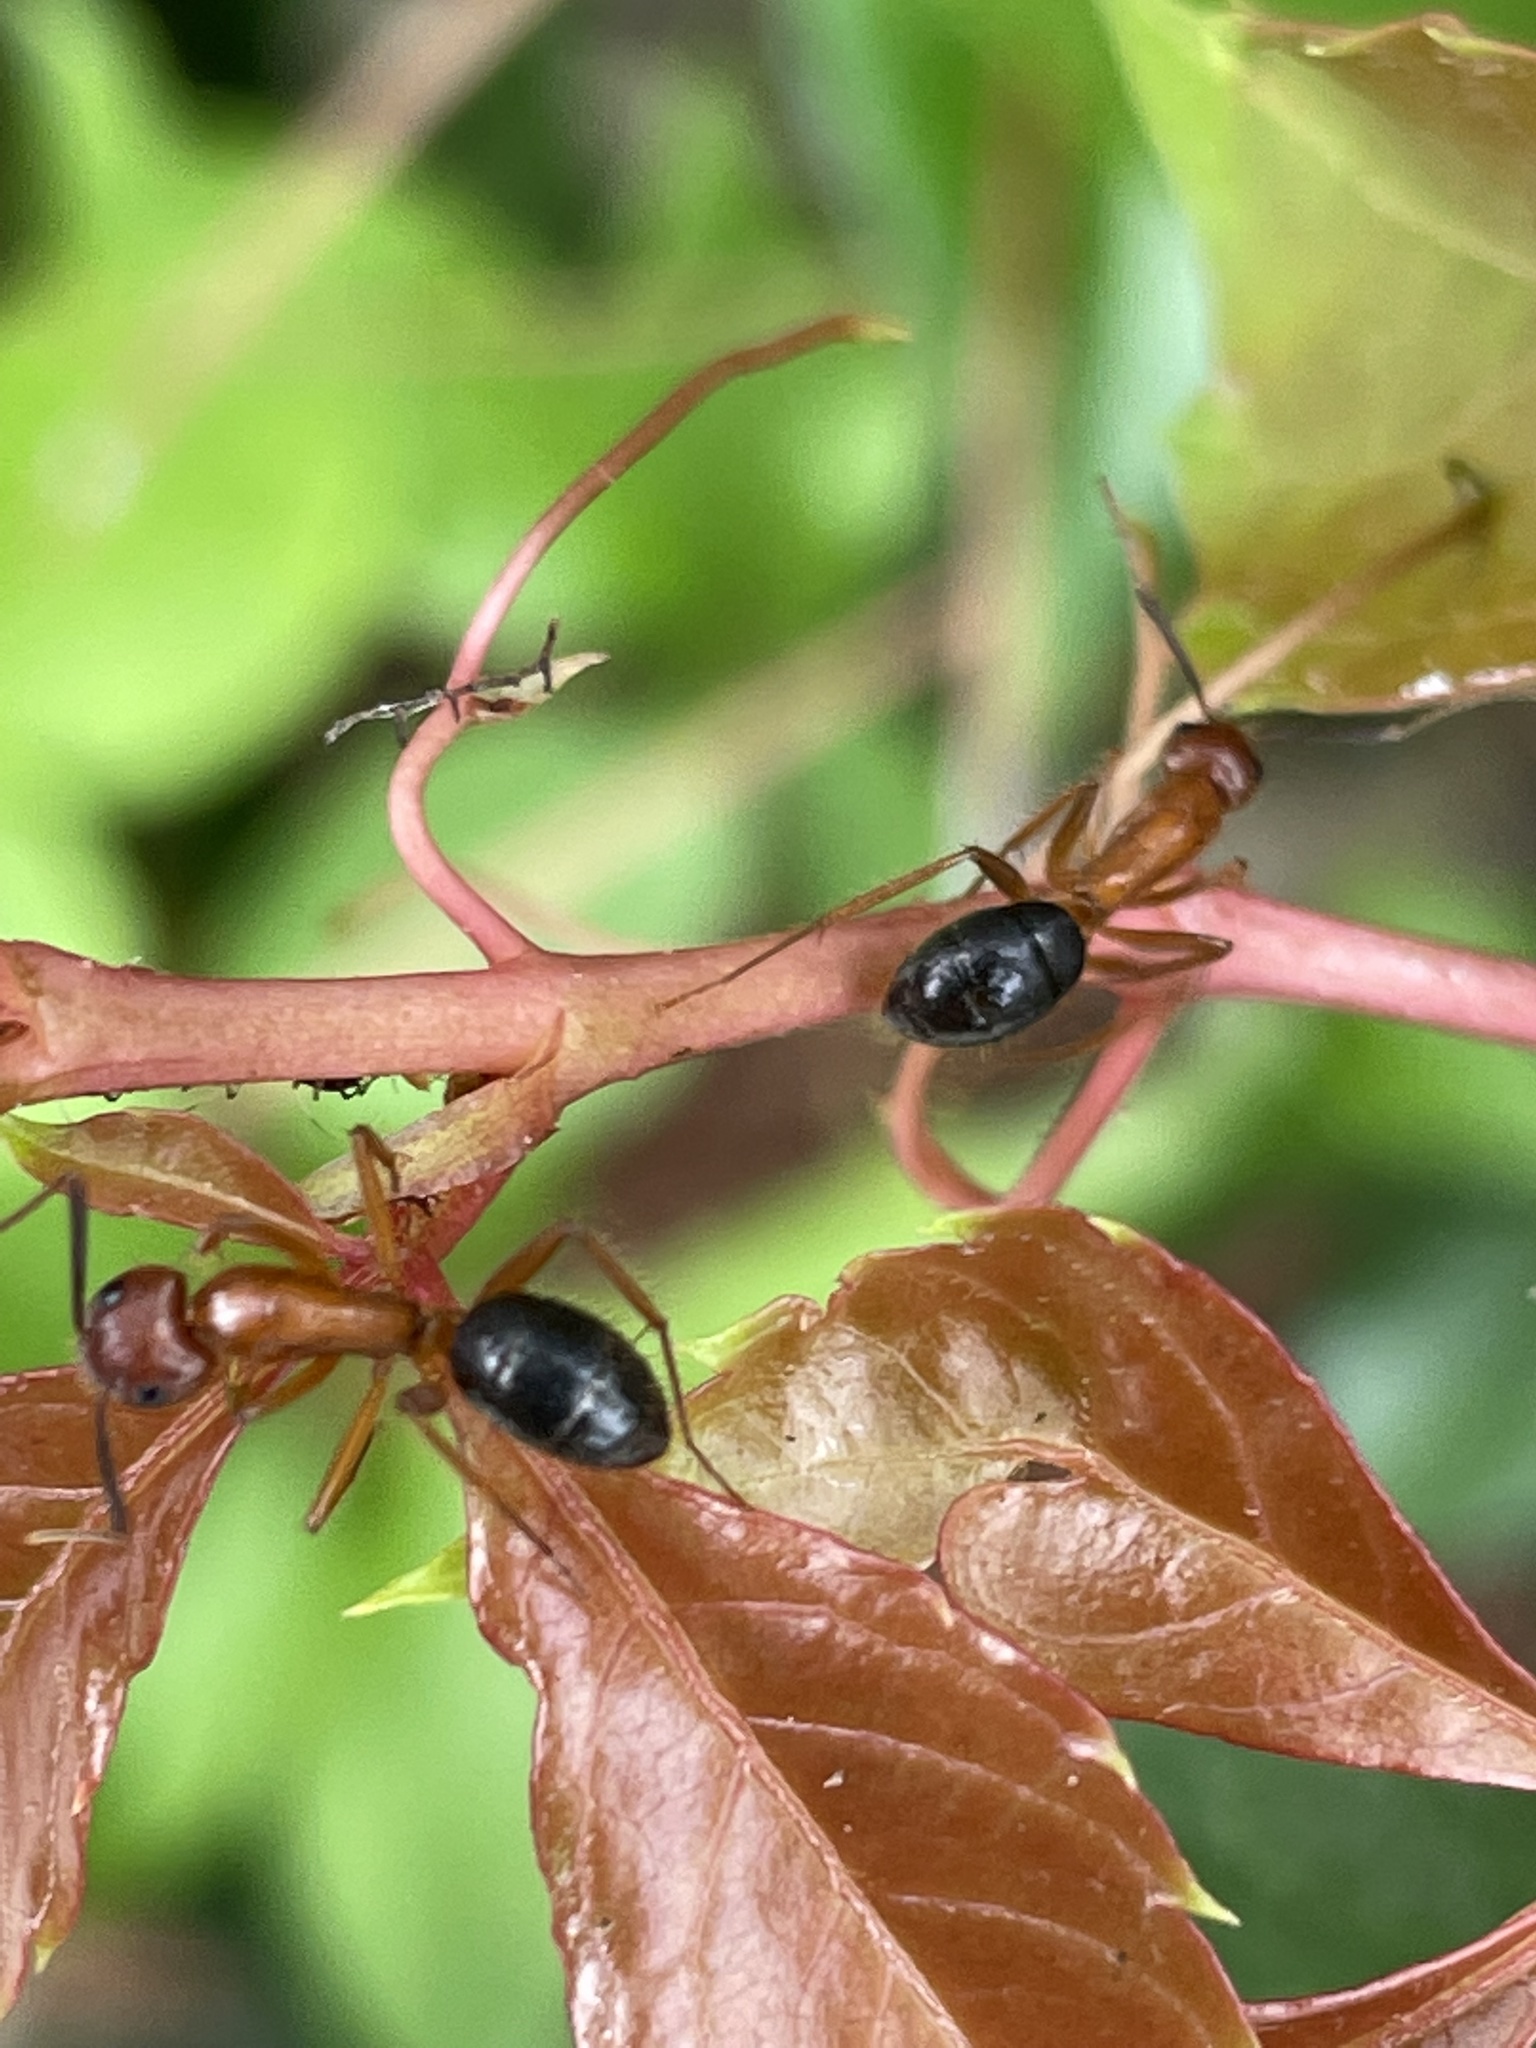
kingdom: Animalia
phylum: Arthropoda
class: Insecta
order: Hymenoptera
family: Formicidae
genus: Camponotus
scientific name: Camponotus floridanus
